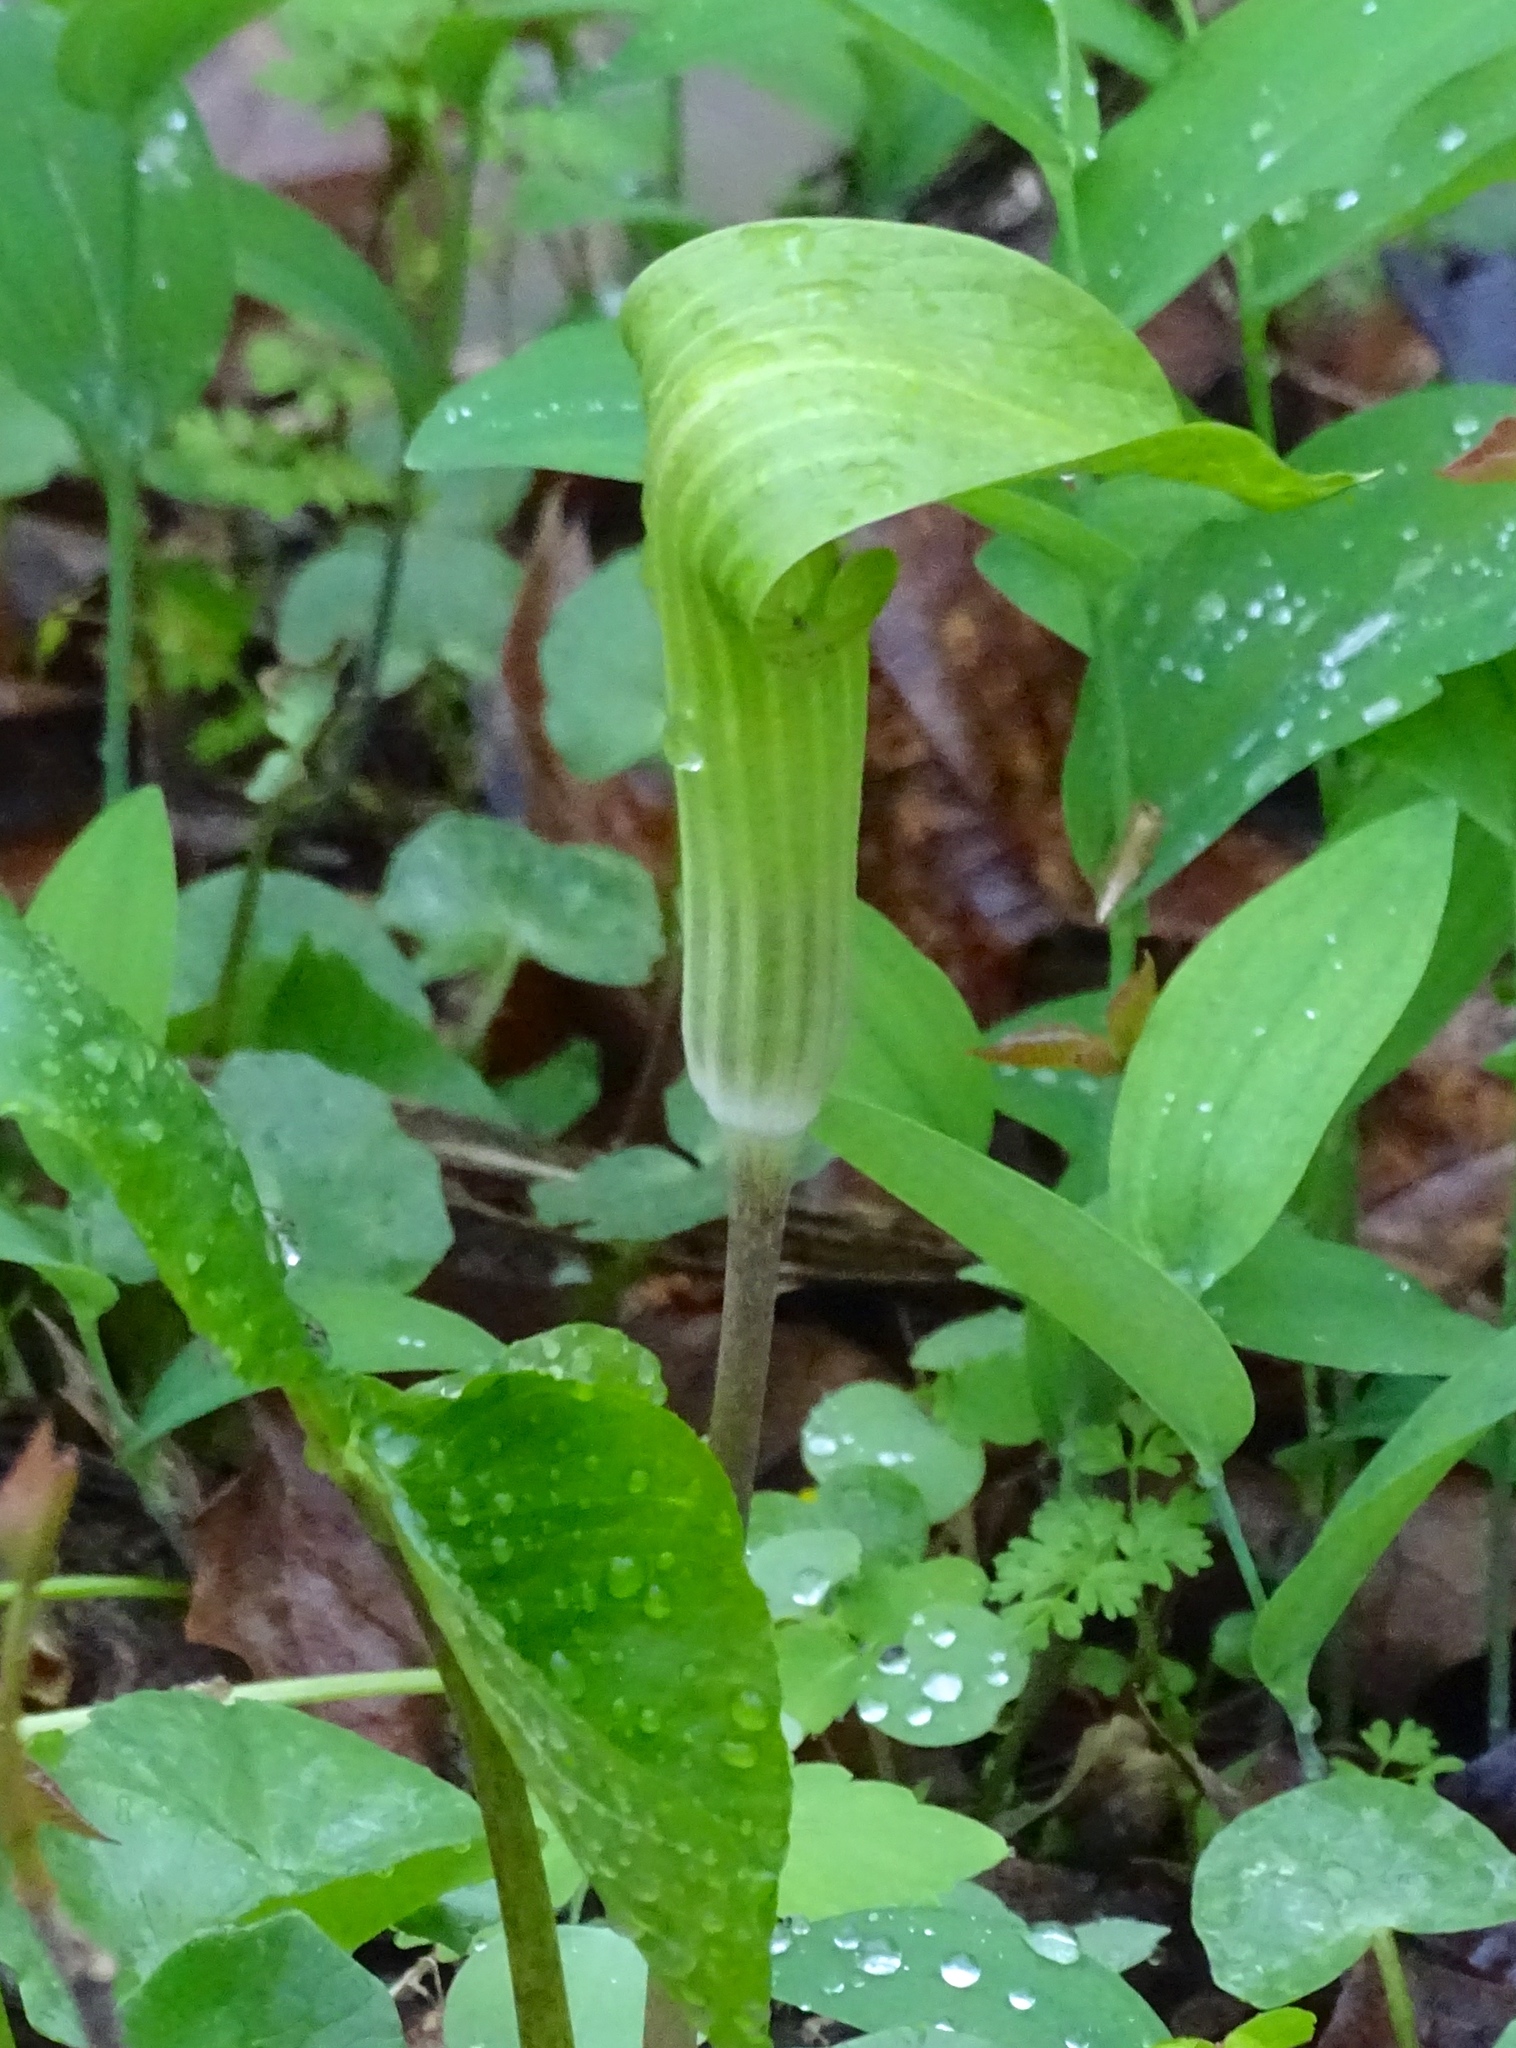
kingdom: Plantae
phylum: Tracheophyta
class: Liliopsida
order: Alismatales
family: Araceae
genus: Arisaema
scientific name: Arisaema triphyllum
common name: Jack-in-the-pulpit
